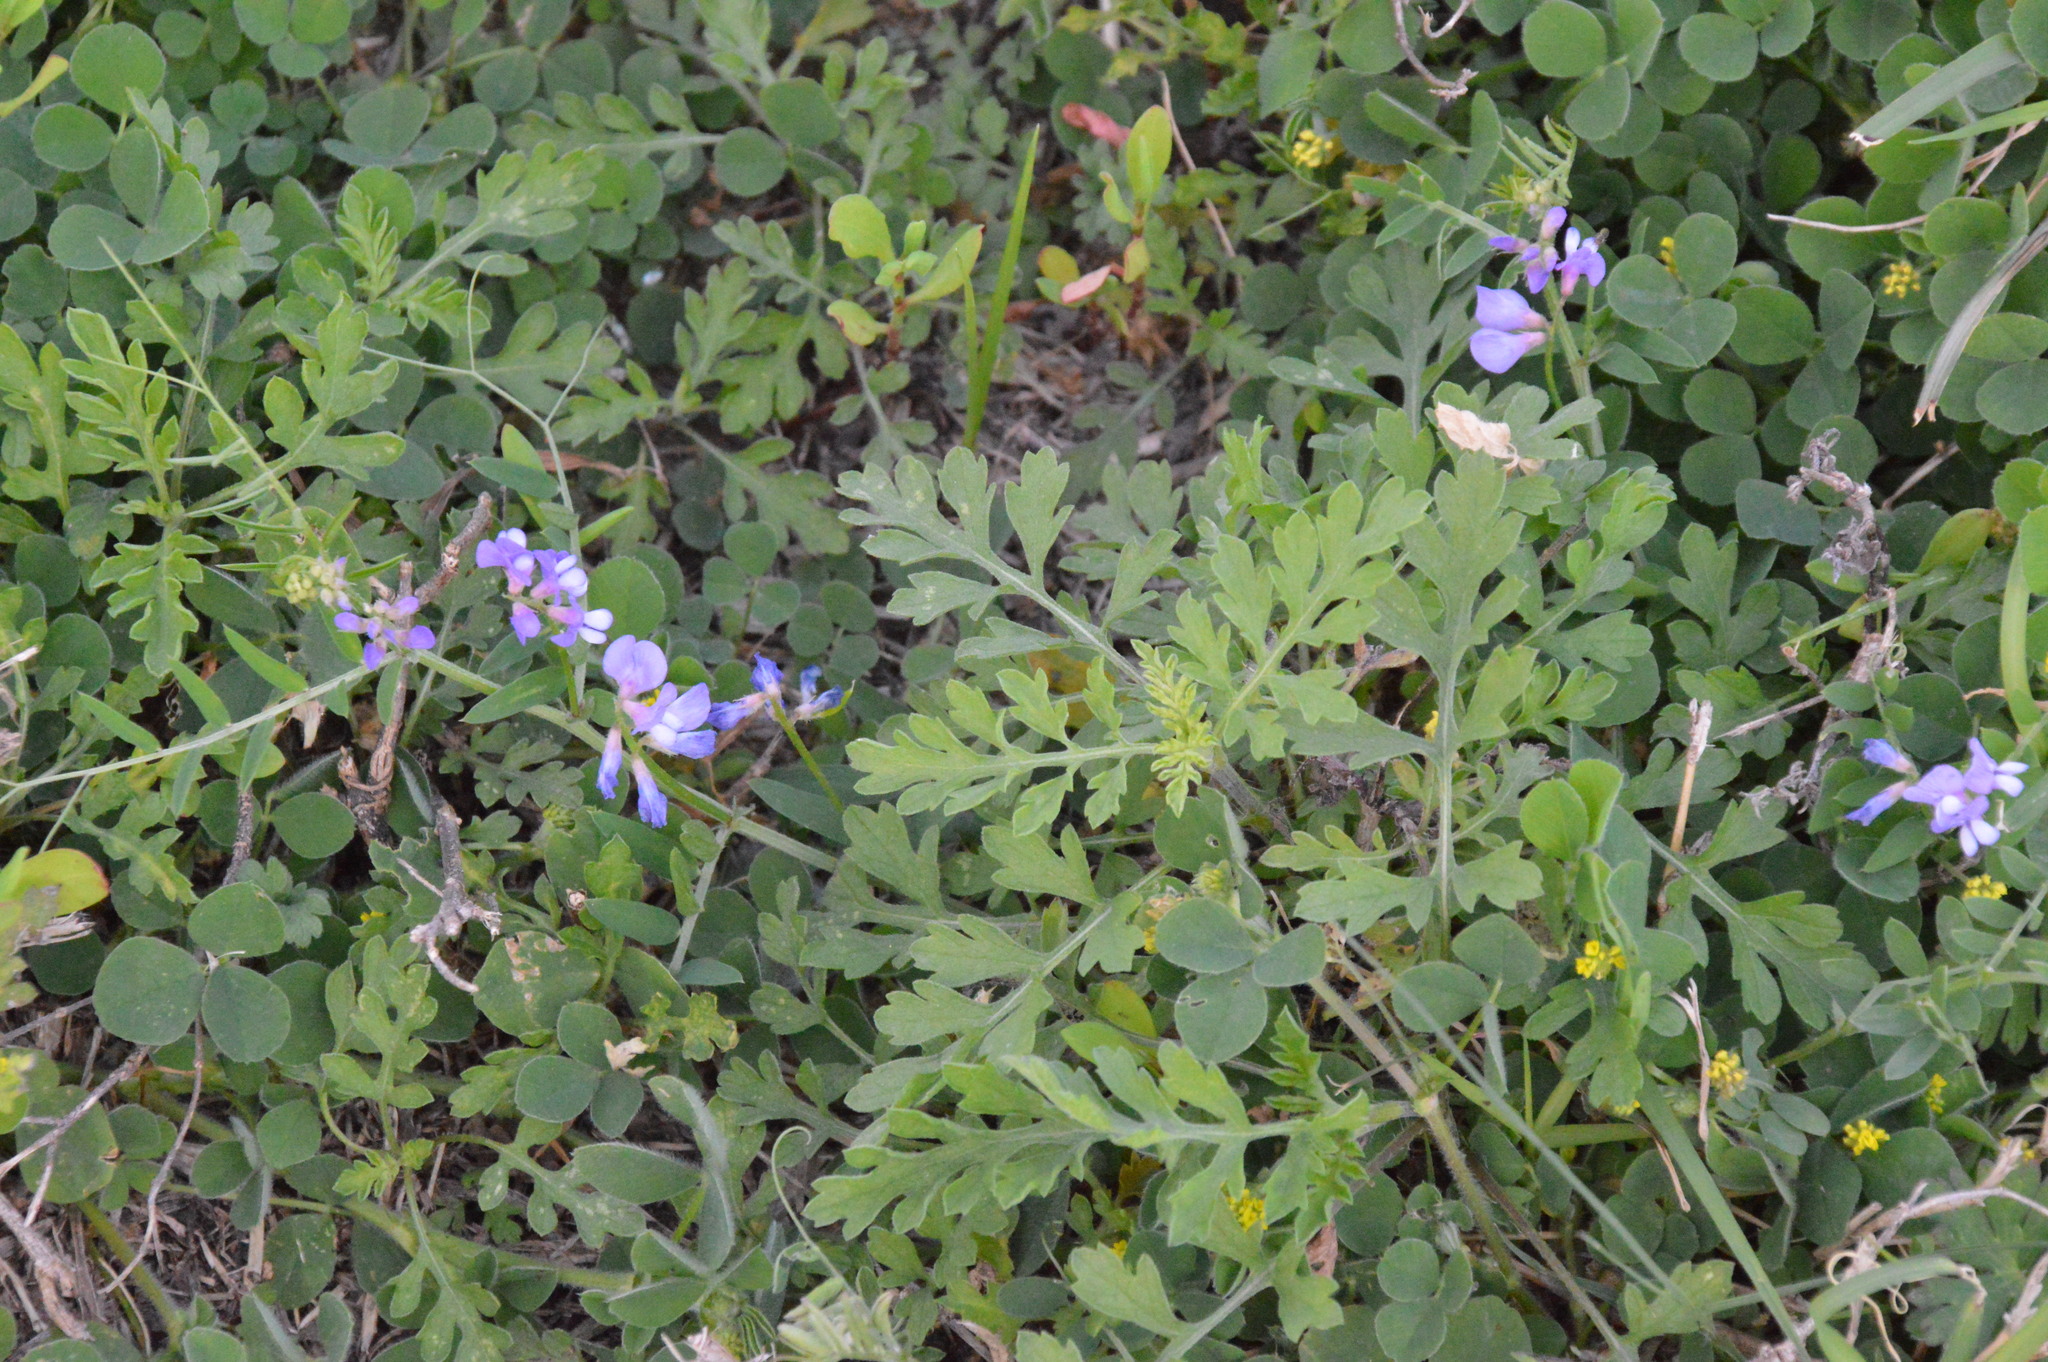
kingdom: Plantae
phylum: Tracheophyta
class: Magnoliopsida
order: Fabales
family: Fabaceae
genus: Vicia
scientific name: Vicia ludoviciana
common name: Louisiana vetch
